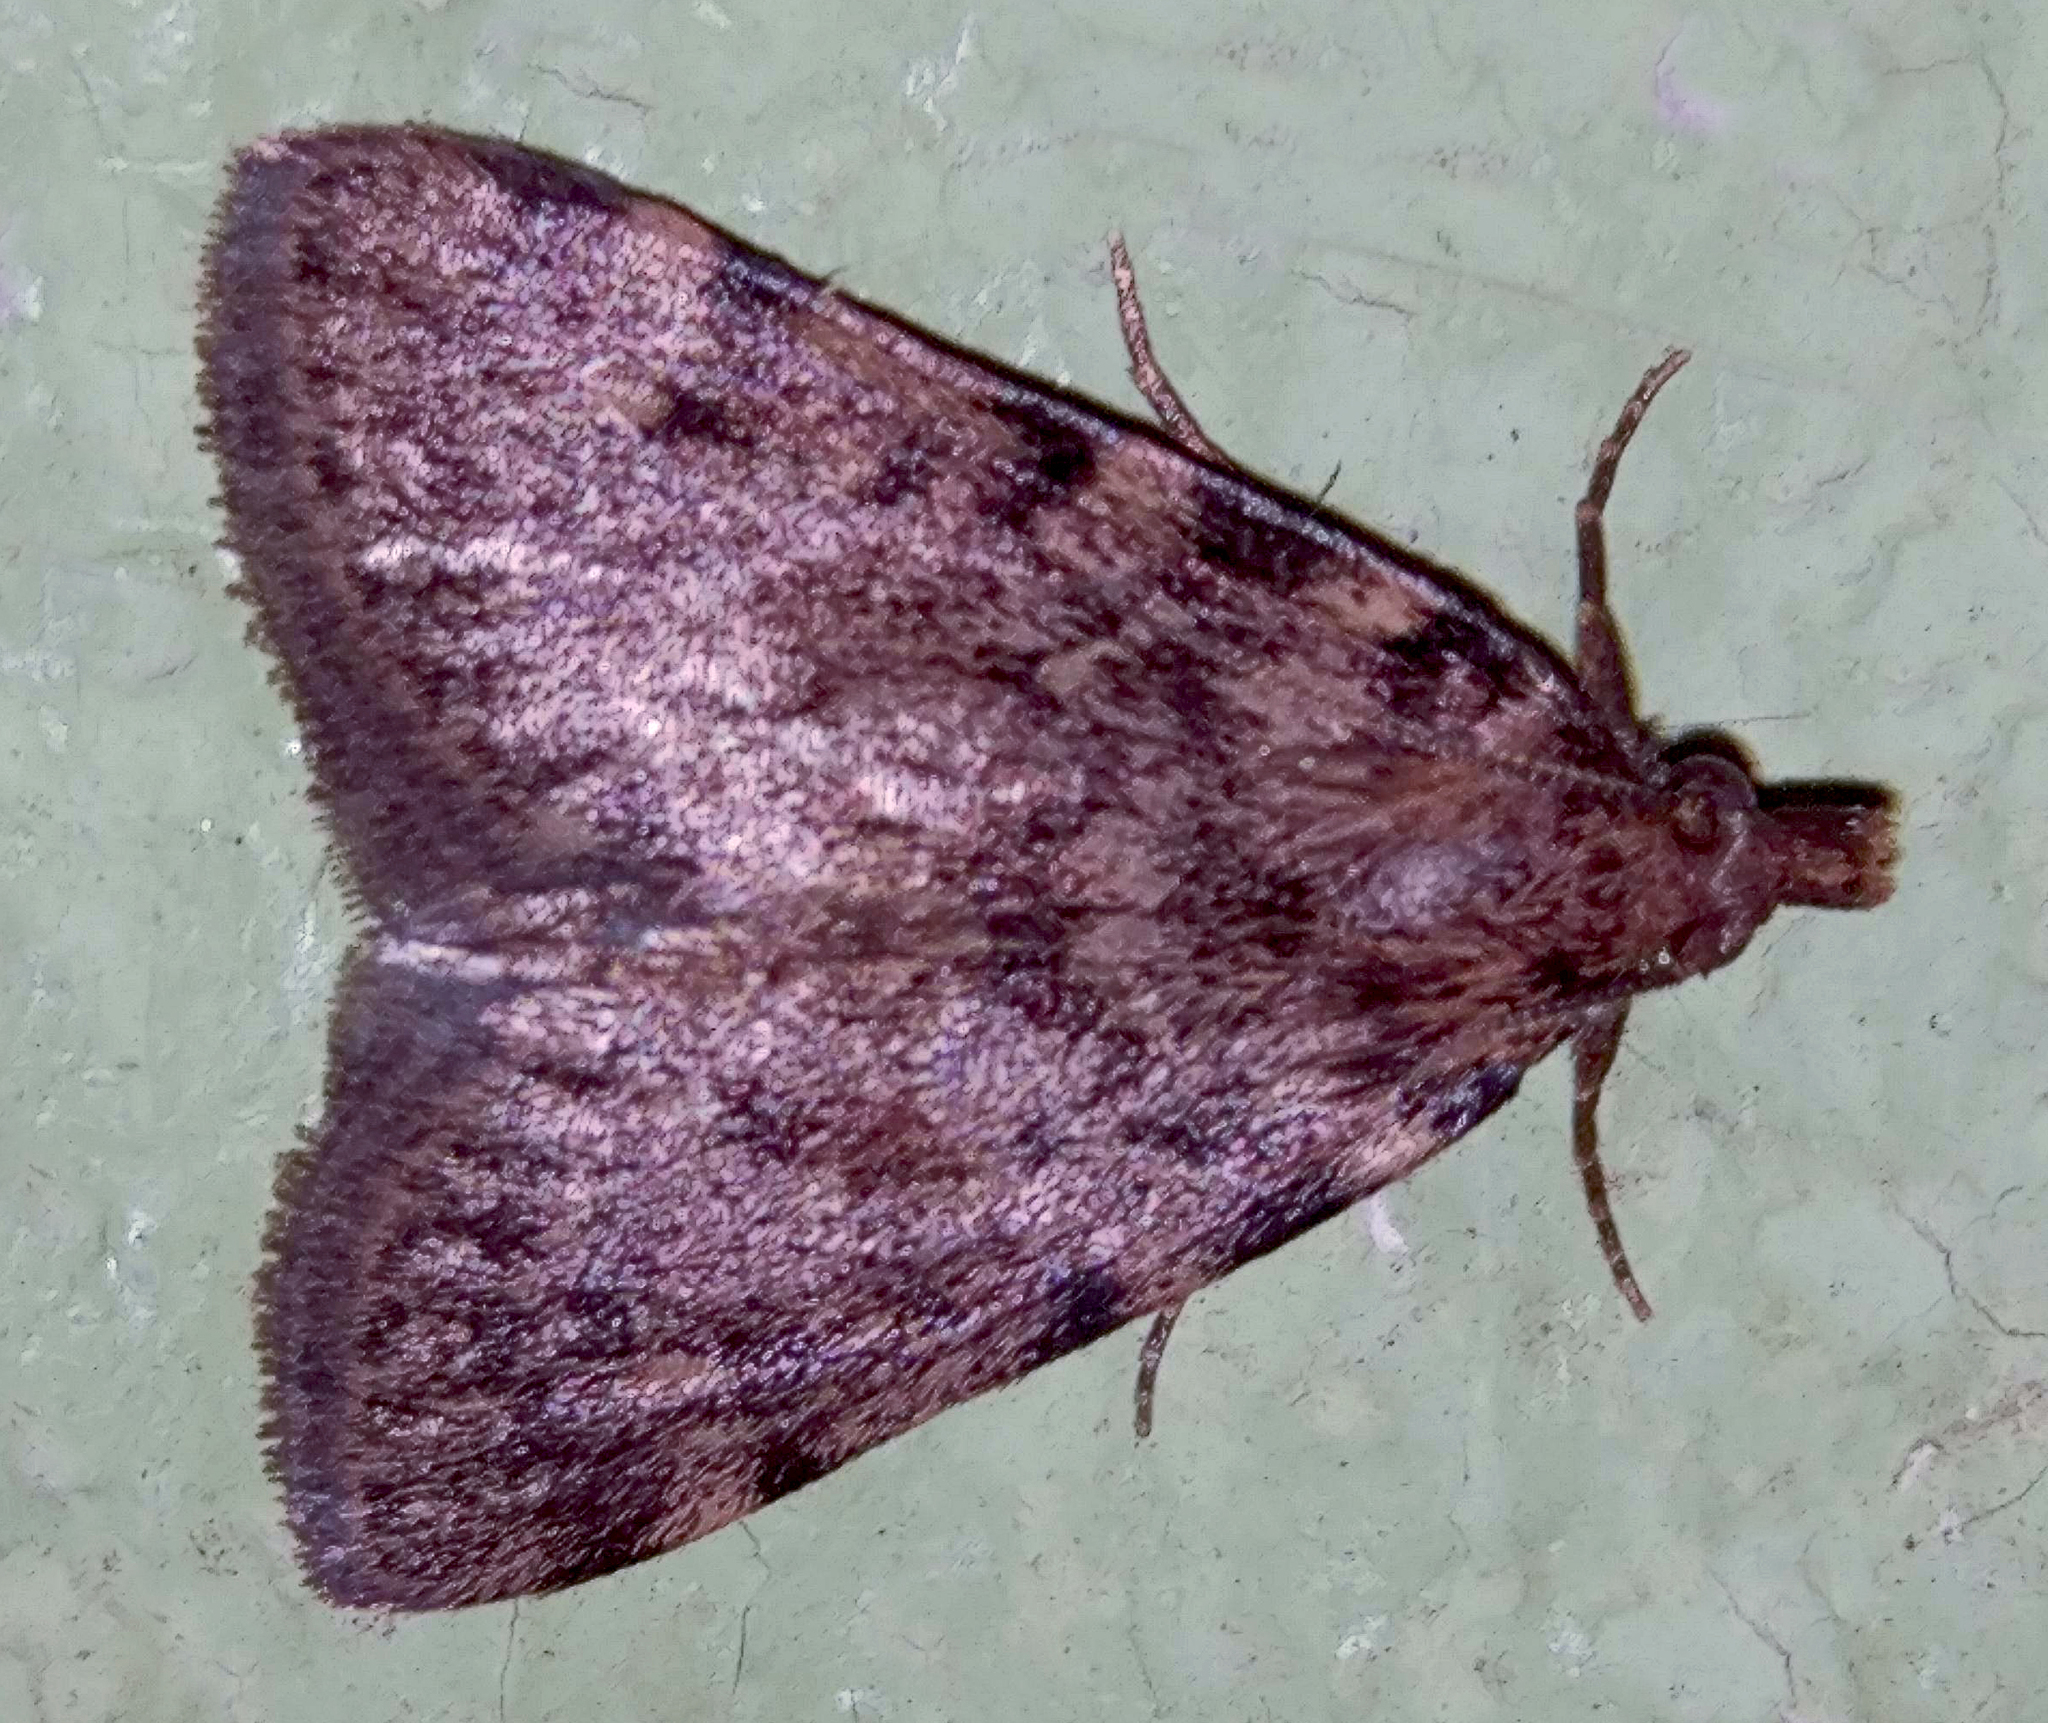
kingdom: Animalia
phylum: Arthropoda
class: Insecta
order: Lepidoptera
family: Pyralidae
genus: Aglossa
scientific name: Aglossa pinguinalis
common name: Large tabby
